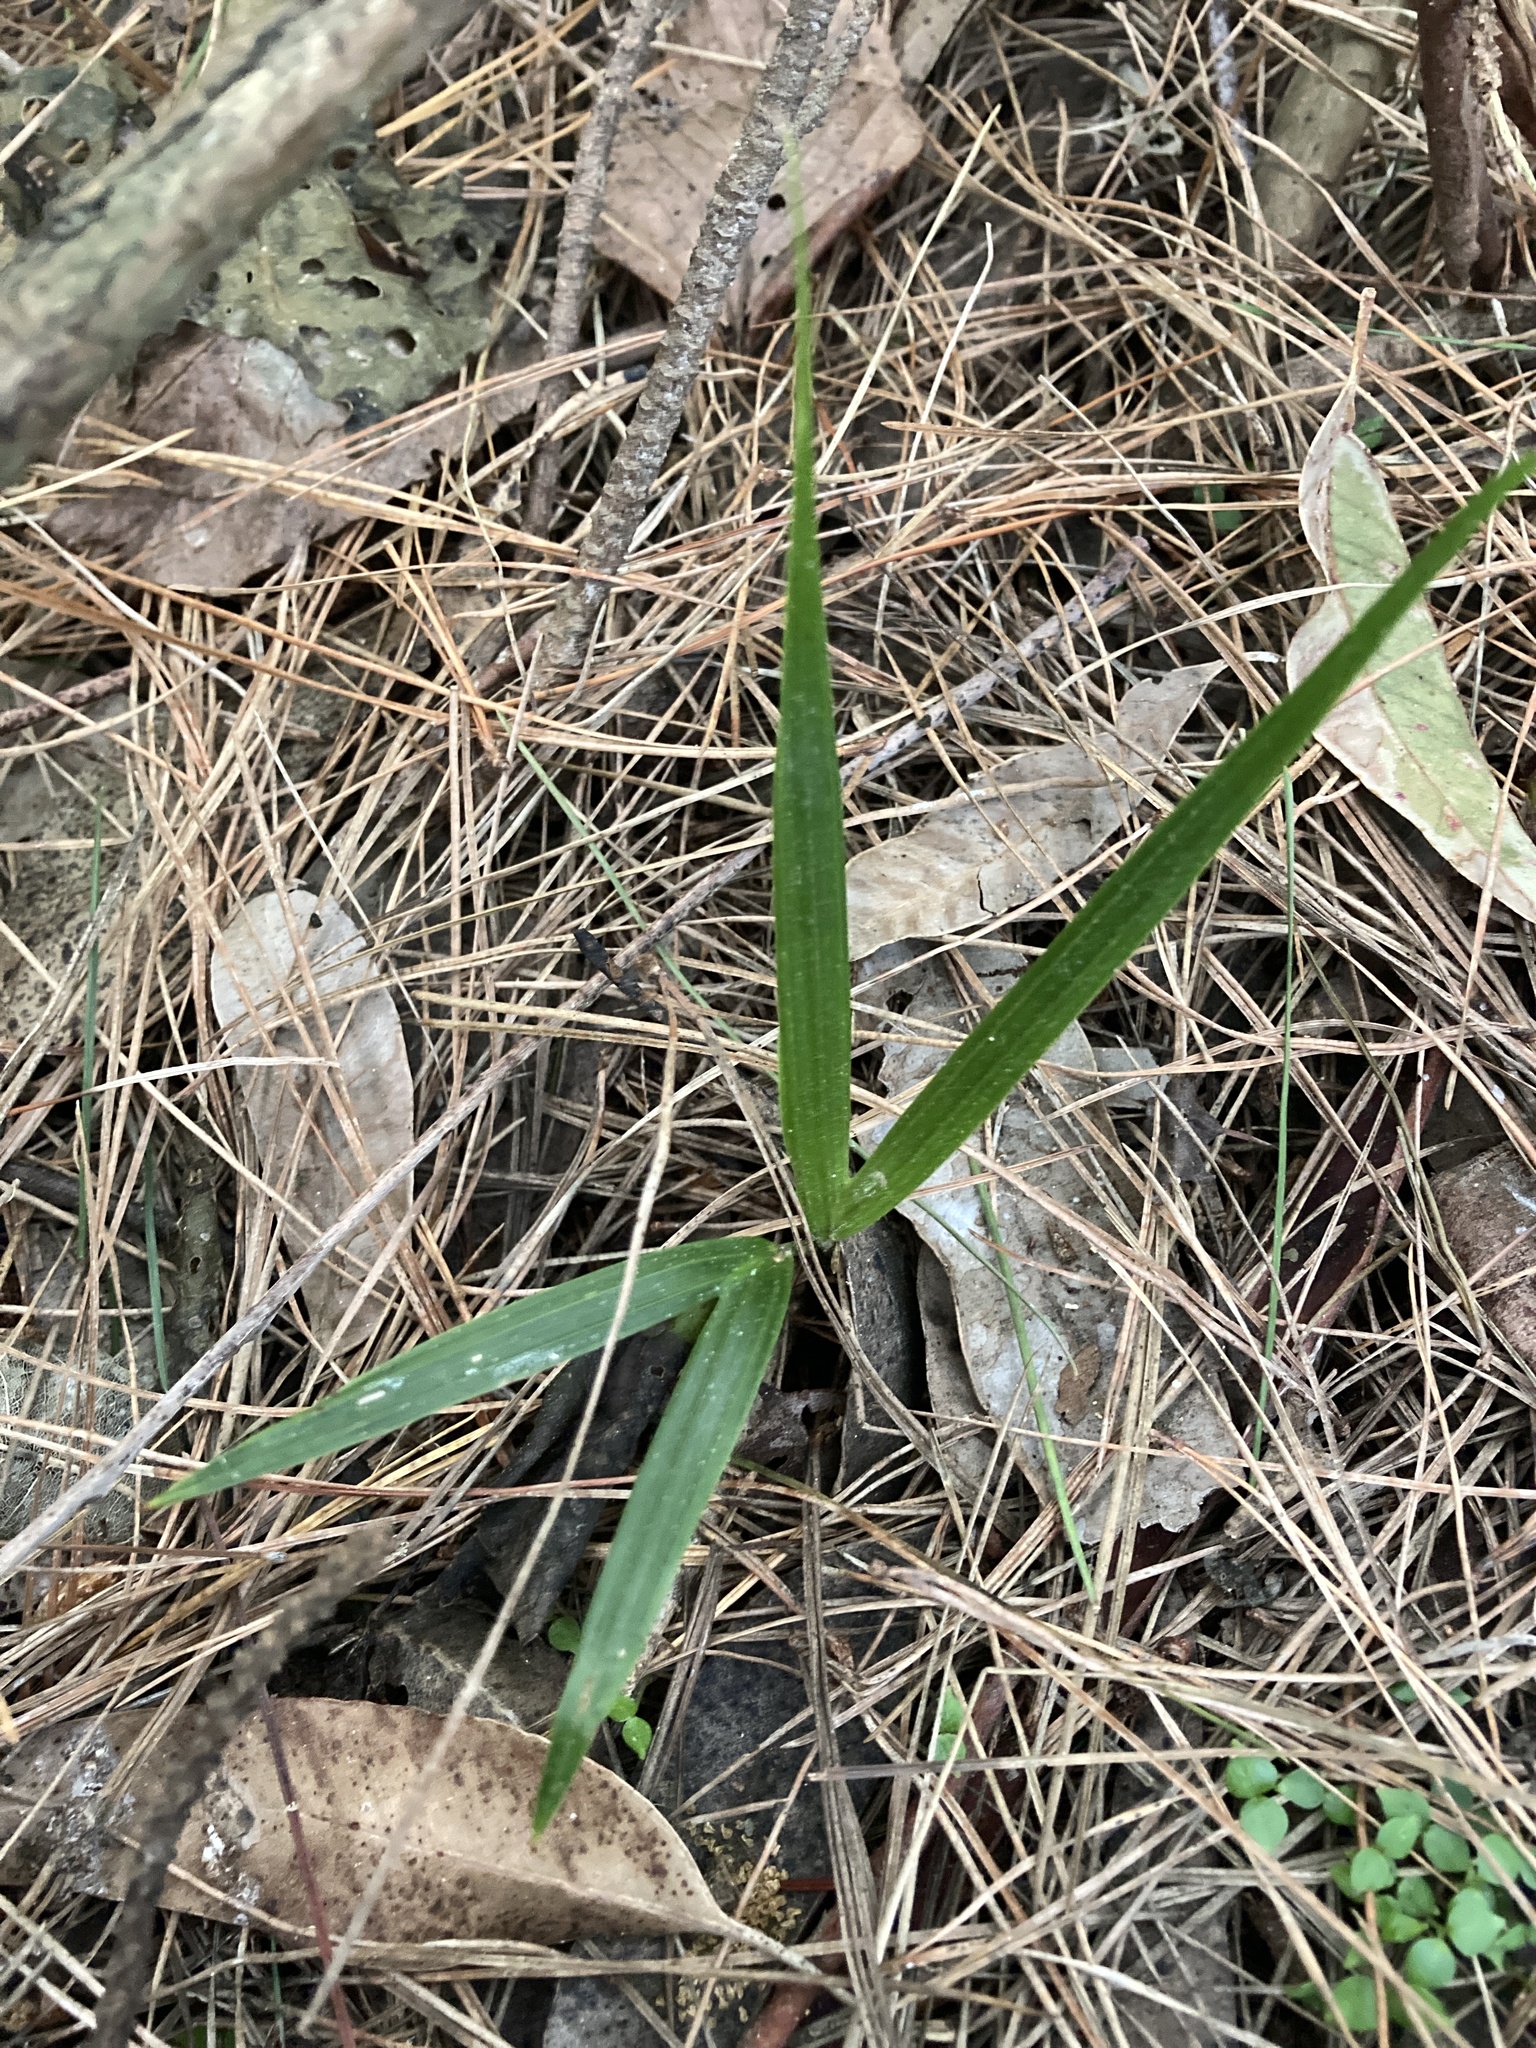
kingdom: Plantae
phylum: Tracheophyta
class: Liliopsida
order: Arecales
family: Arecaceae
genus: Rhopalostylis
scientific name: Rhopalostylis sapida
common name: Feather-duster palm
